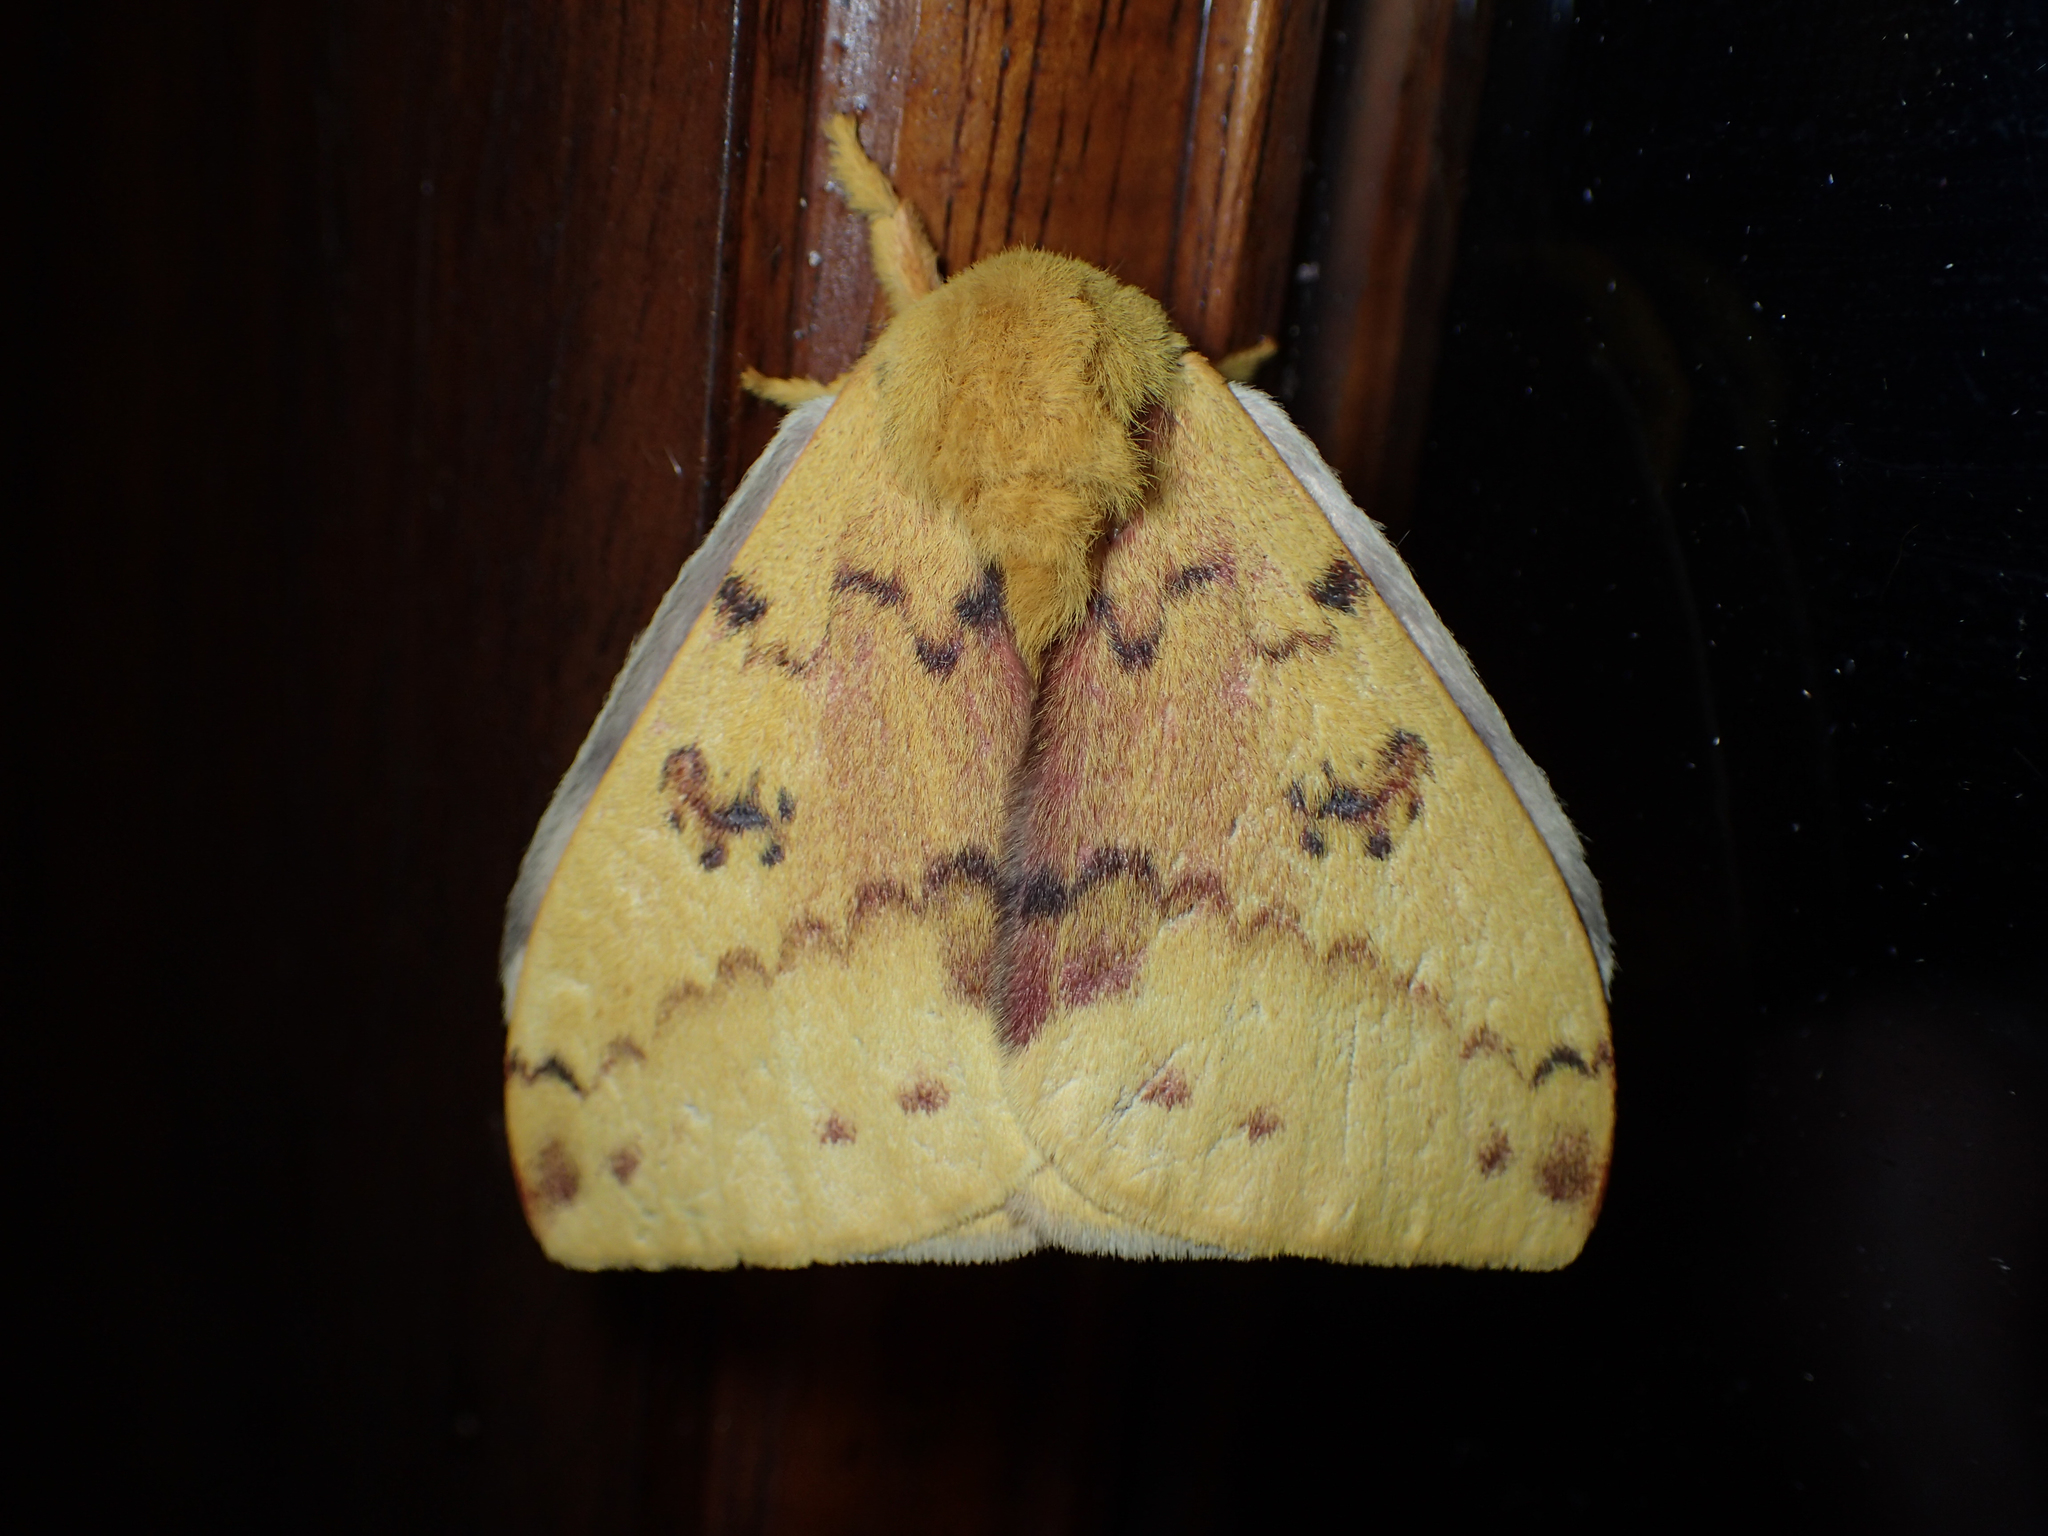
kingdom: Animalia
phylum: Arthropoda
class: Insecta
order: Lepidoptera
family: Saturniidae
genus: Automeris
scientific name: Automeris io
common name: Io moth
